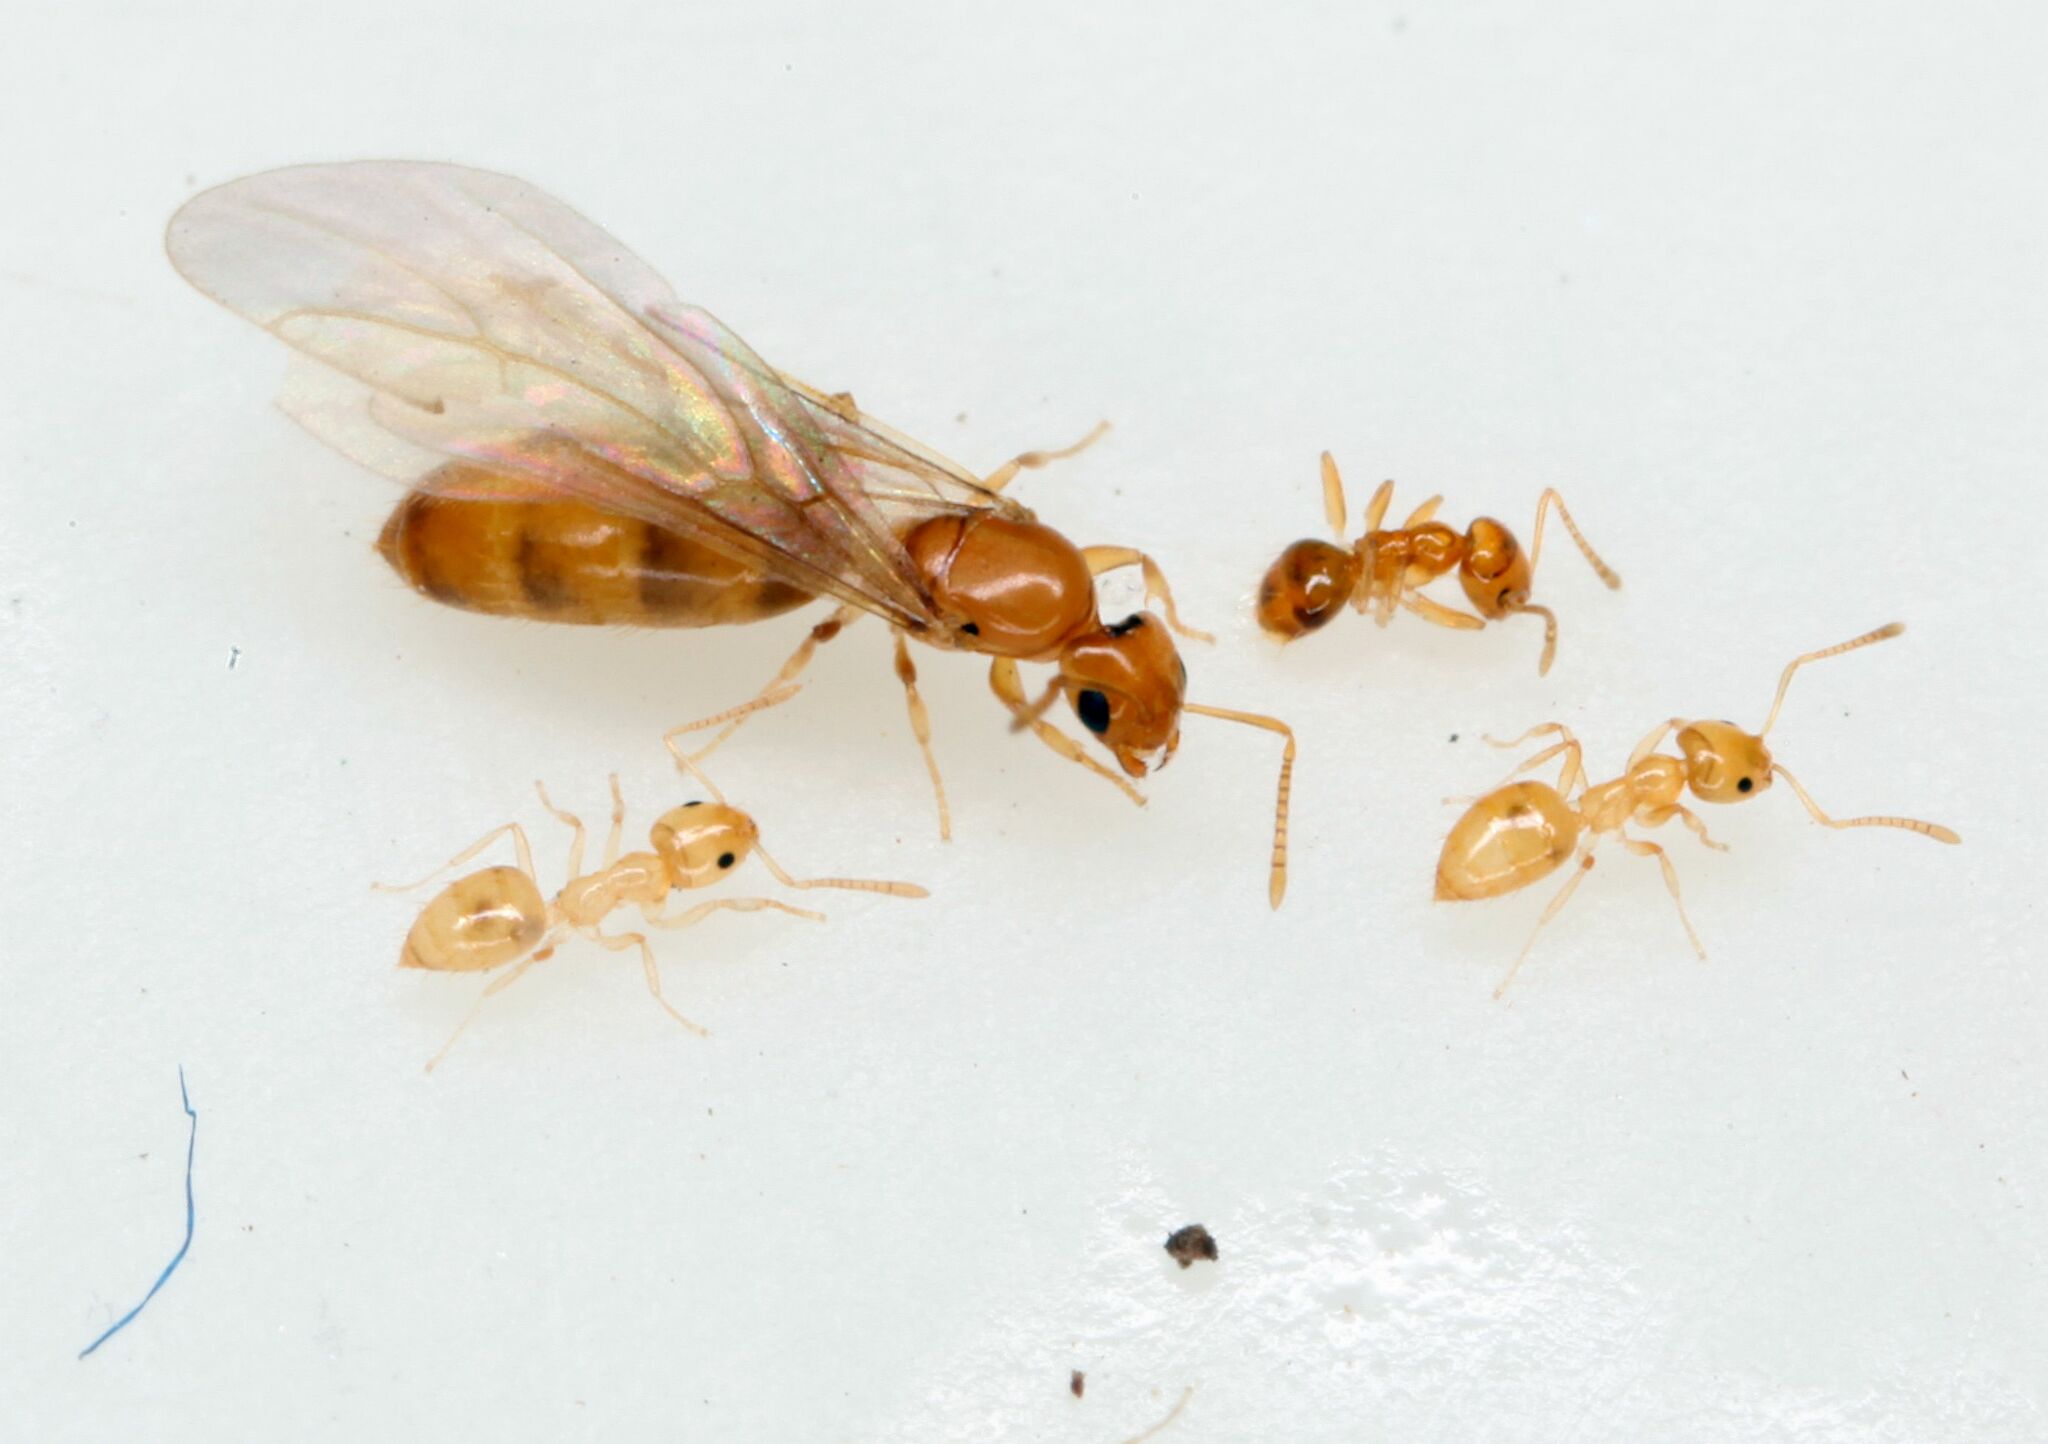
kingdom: Animalia
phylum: Arthropoda
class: Insecta
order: Hymenoptera
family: Formicidae
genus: Plagiolepis
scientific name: Plagiolepis alluaudi
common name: Little yellow ant
